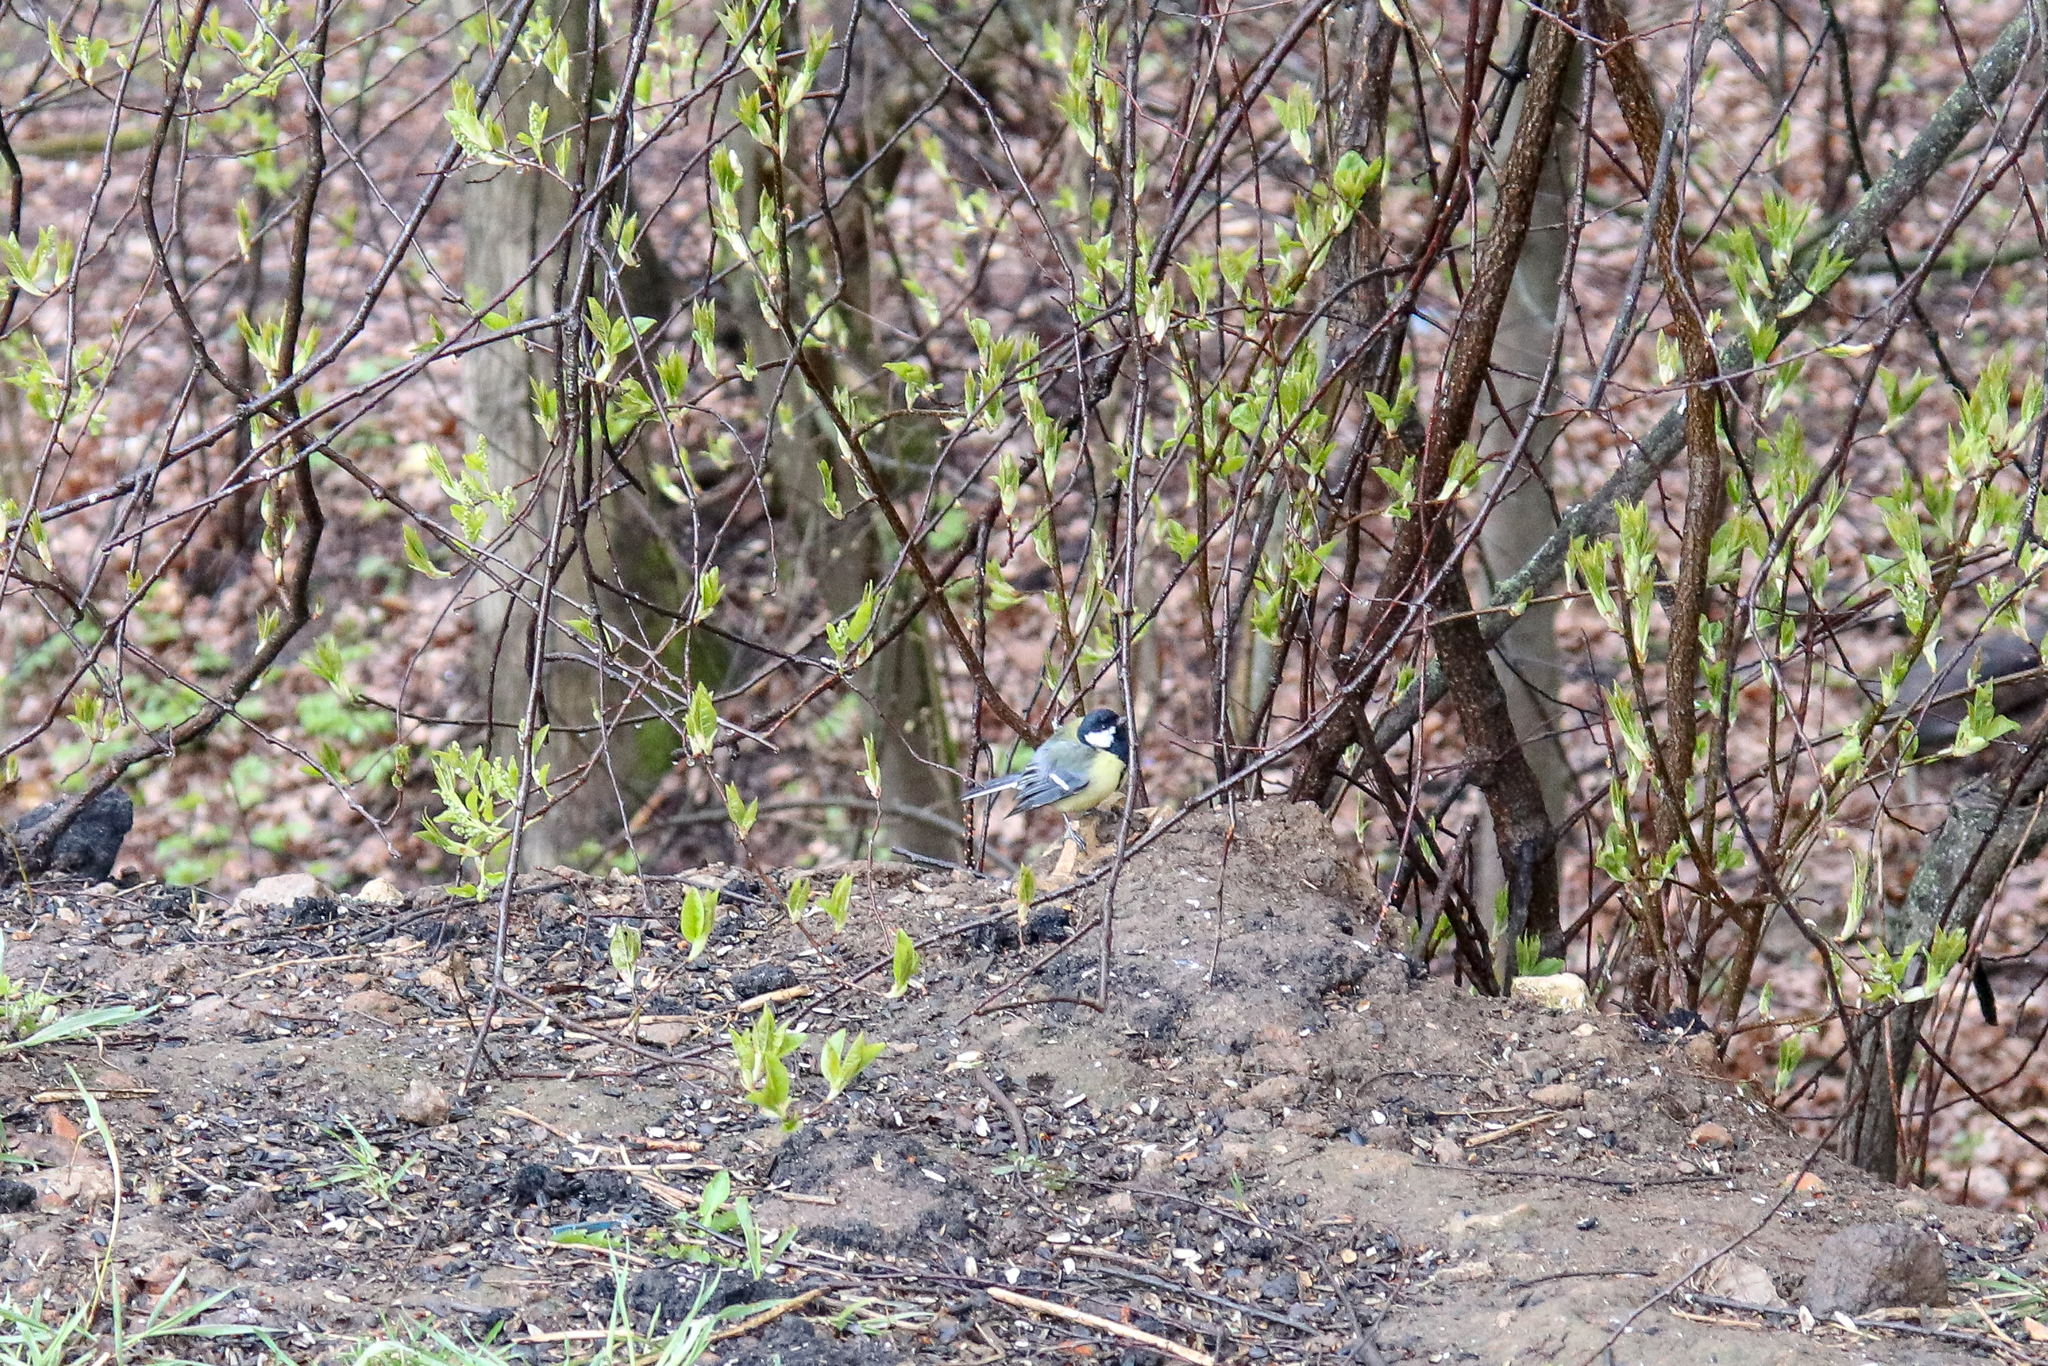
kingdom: Animalia
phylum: Chordata
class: Aves
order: Passeriformes
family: Paridae
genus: Parus
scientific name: Parus major
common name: Great tit
